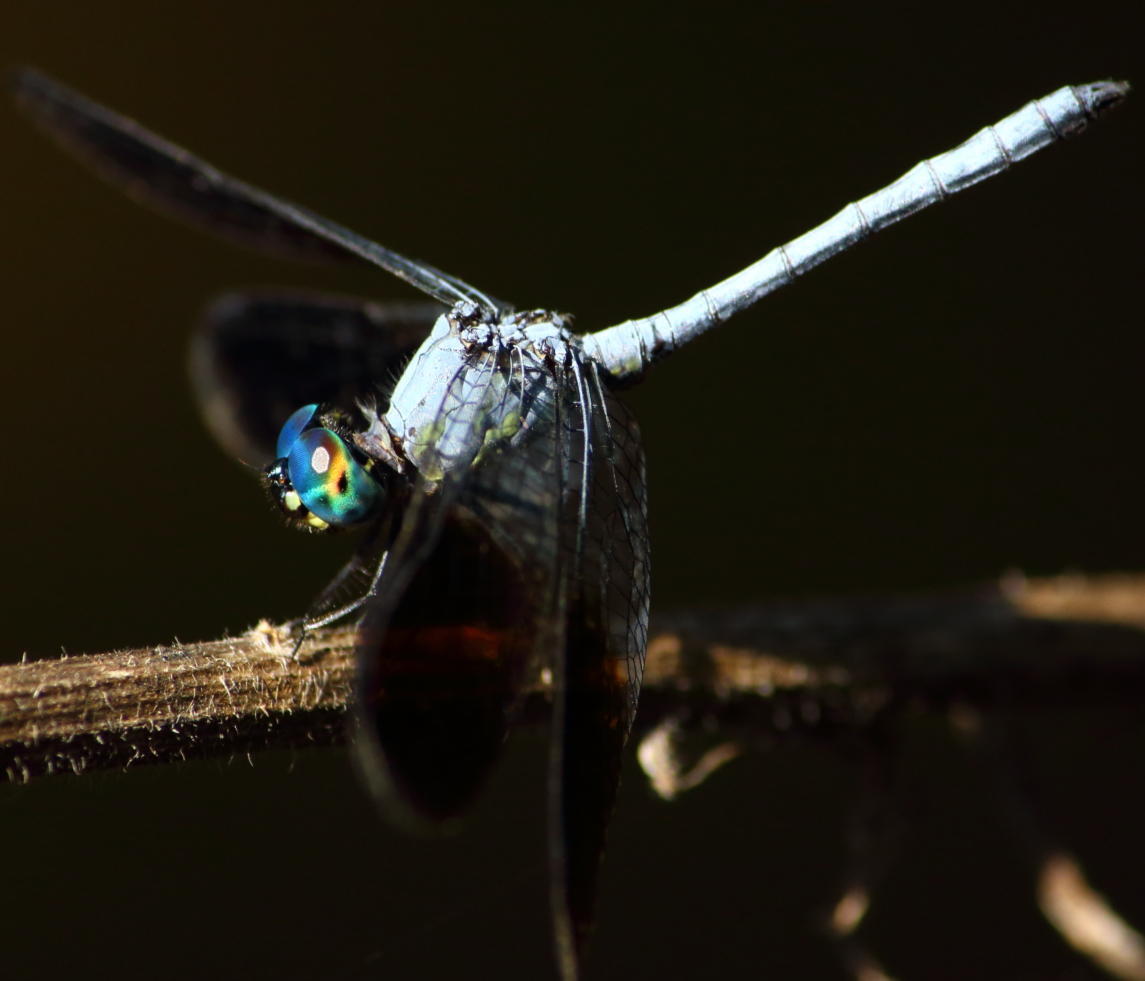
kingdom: Animalia
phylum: Arthropoda
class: Insecta
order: Odonata
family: Libellulidae
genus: Tetrathemis
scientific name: Tetrathemis polleni
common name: Black-splashed elf
